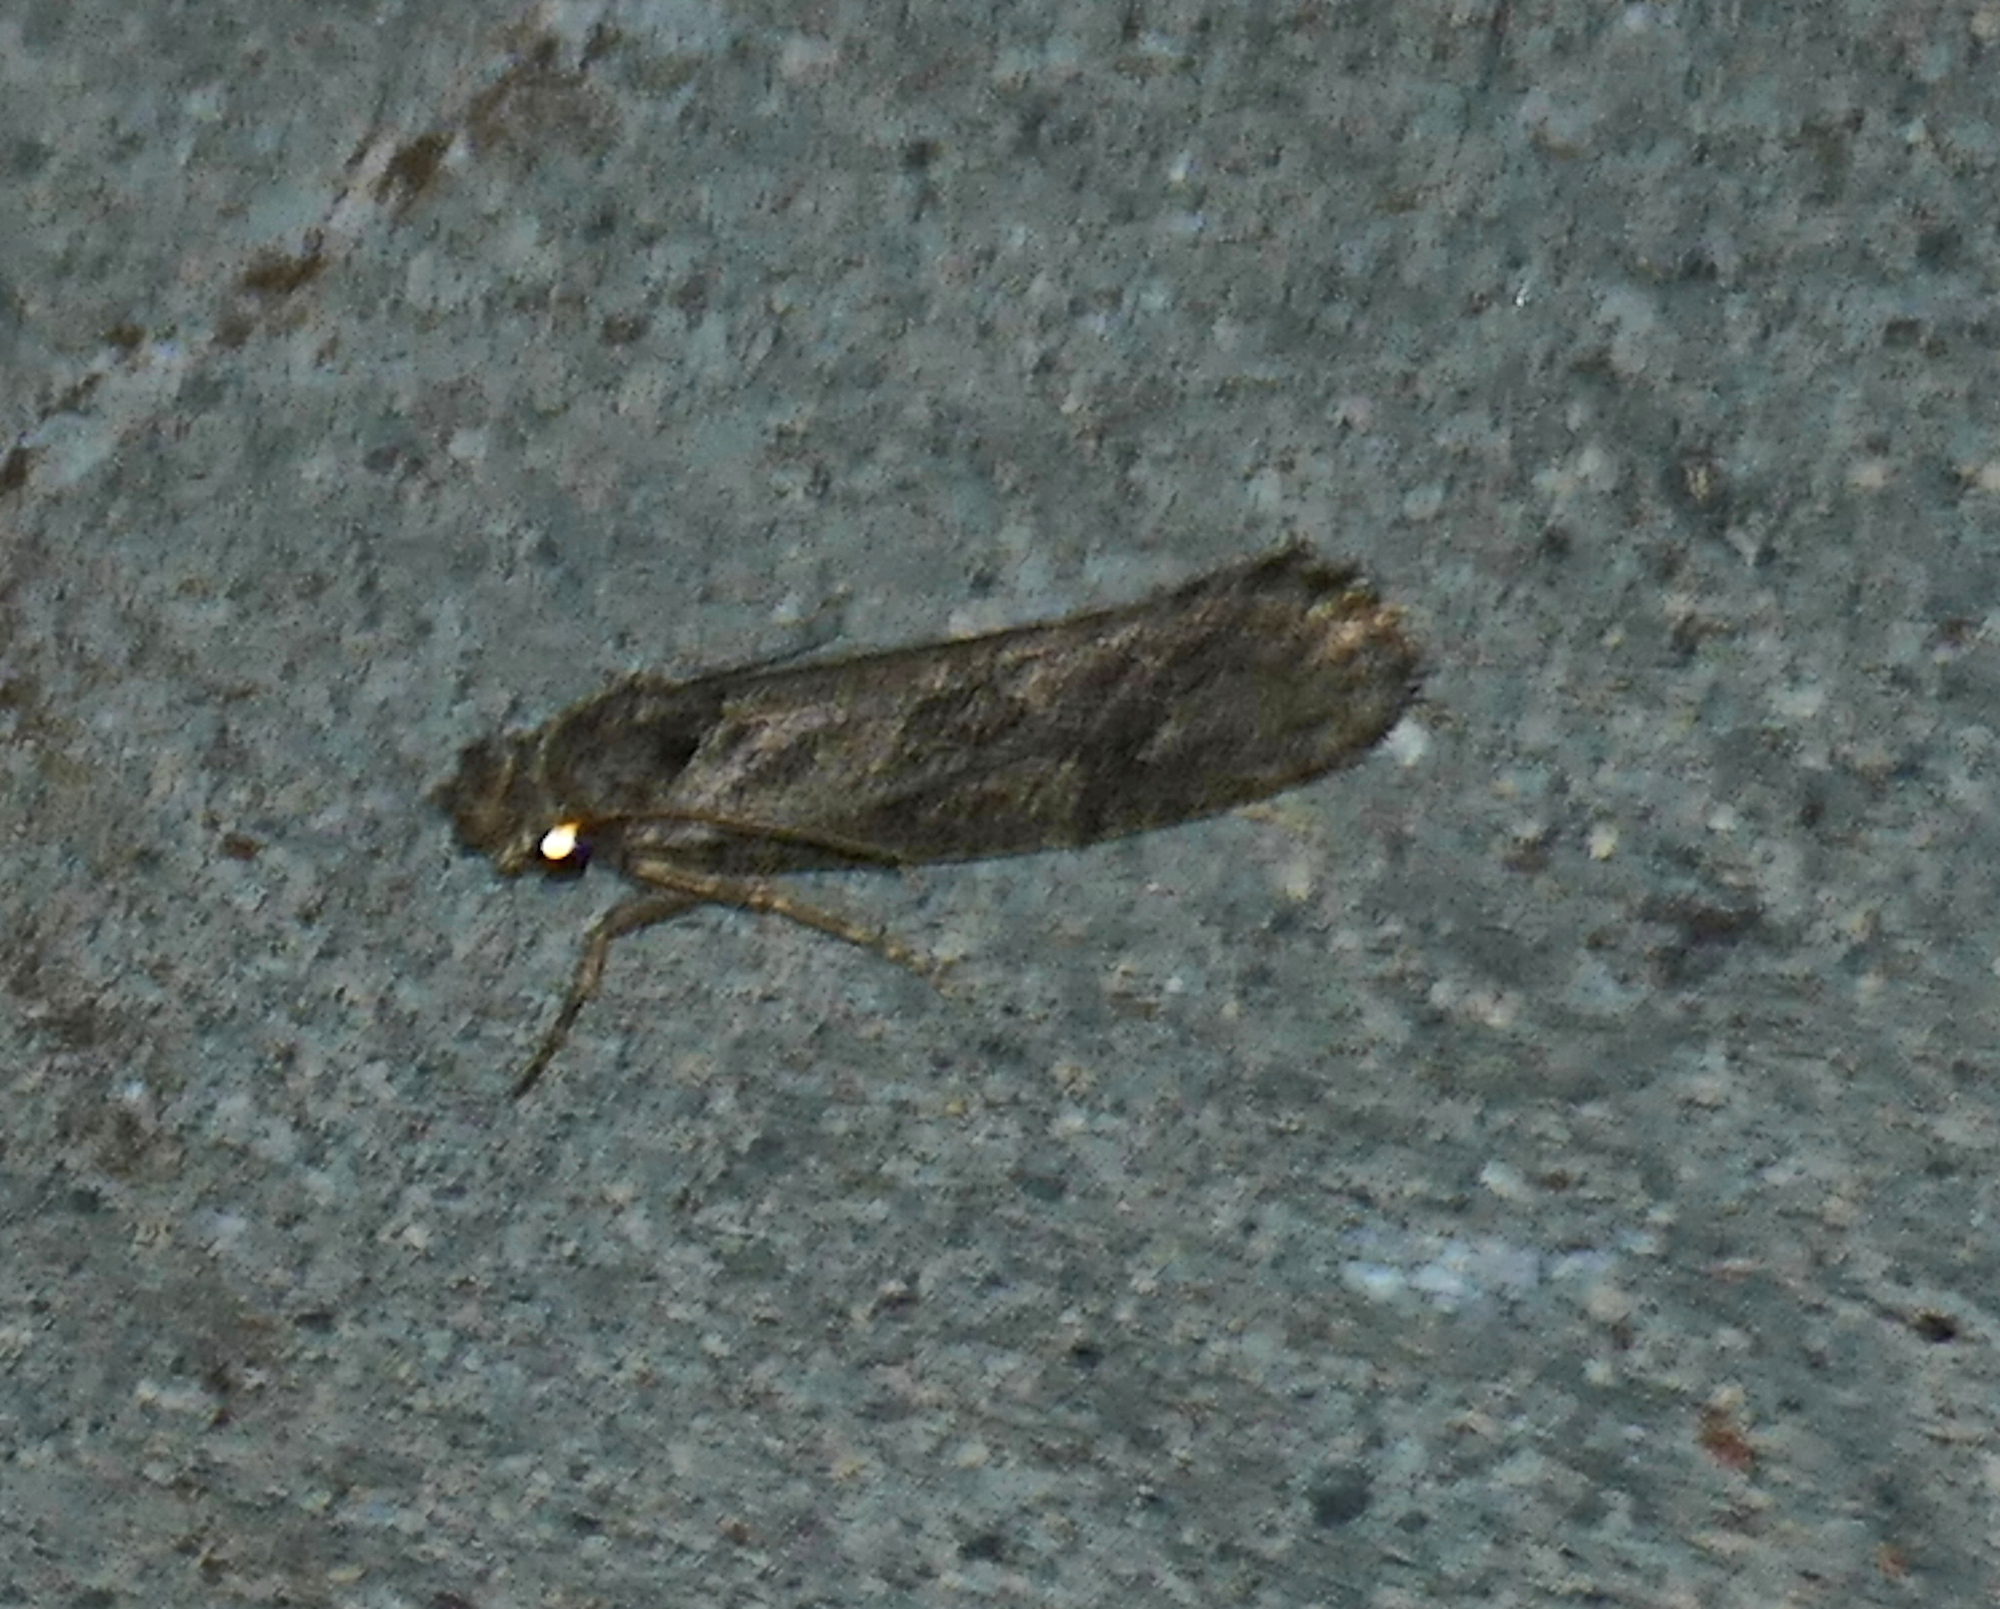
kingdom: Animalia
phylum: Arthropoda
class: Insecta
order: Lepidoptera
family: Tineidae
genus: Amydria
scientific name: Amydria effrentella
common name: Brown-blotched amydria moth
